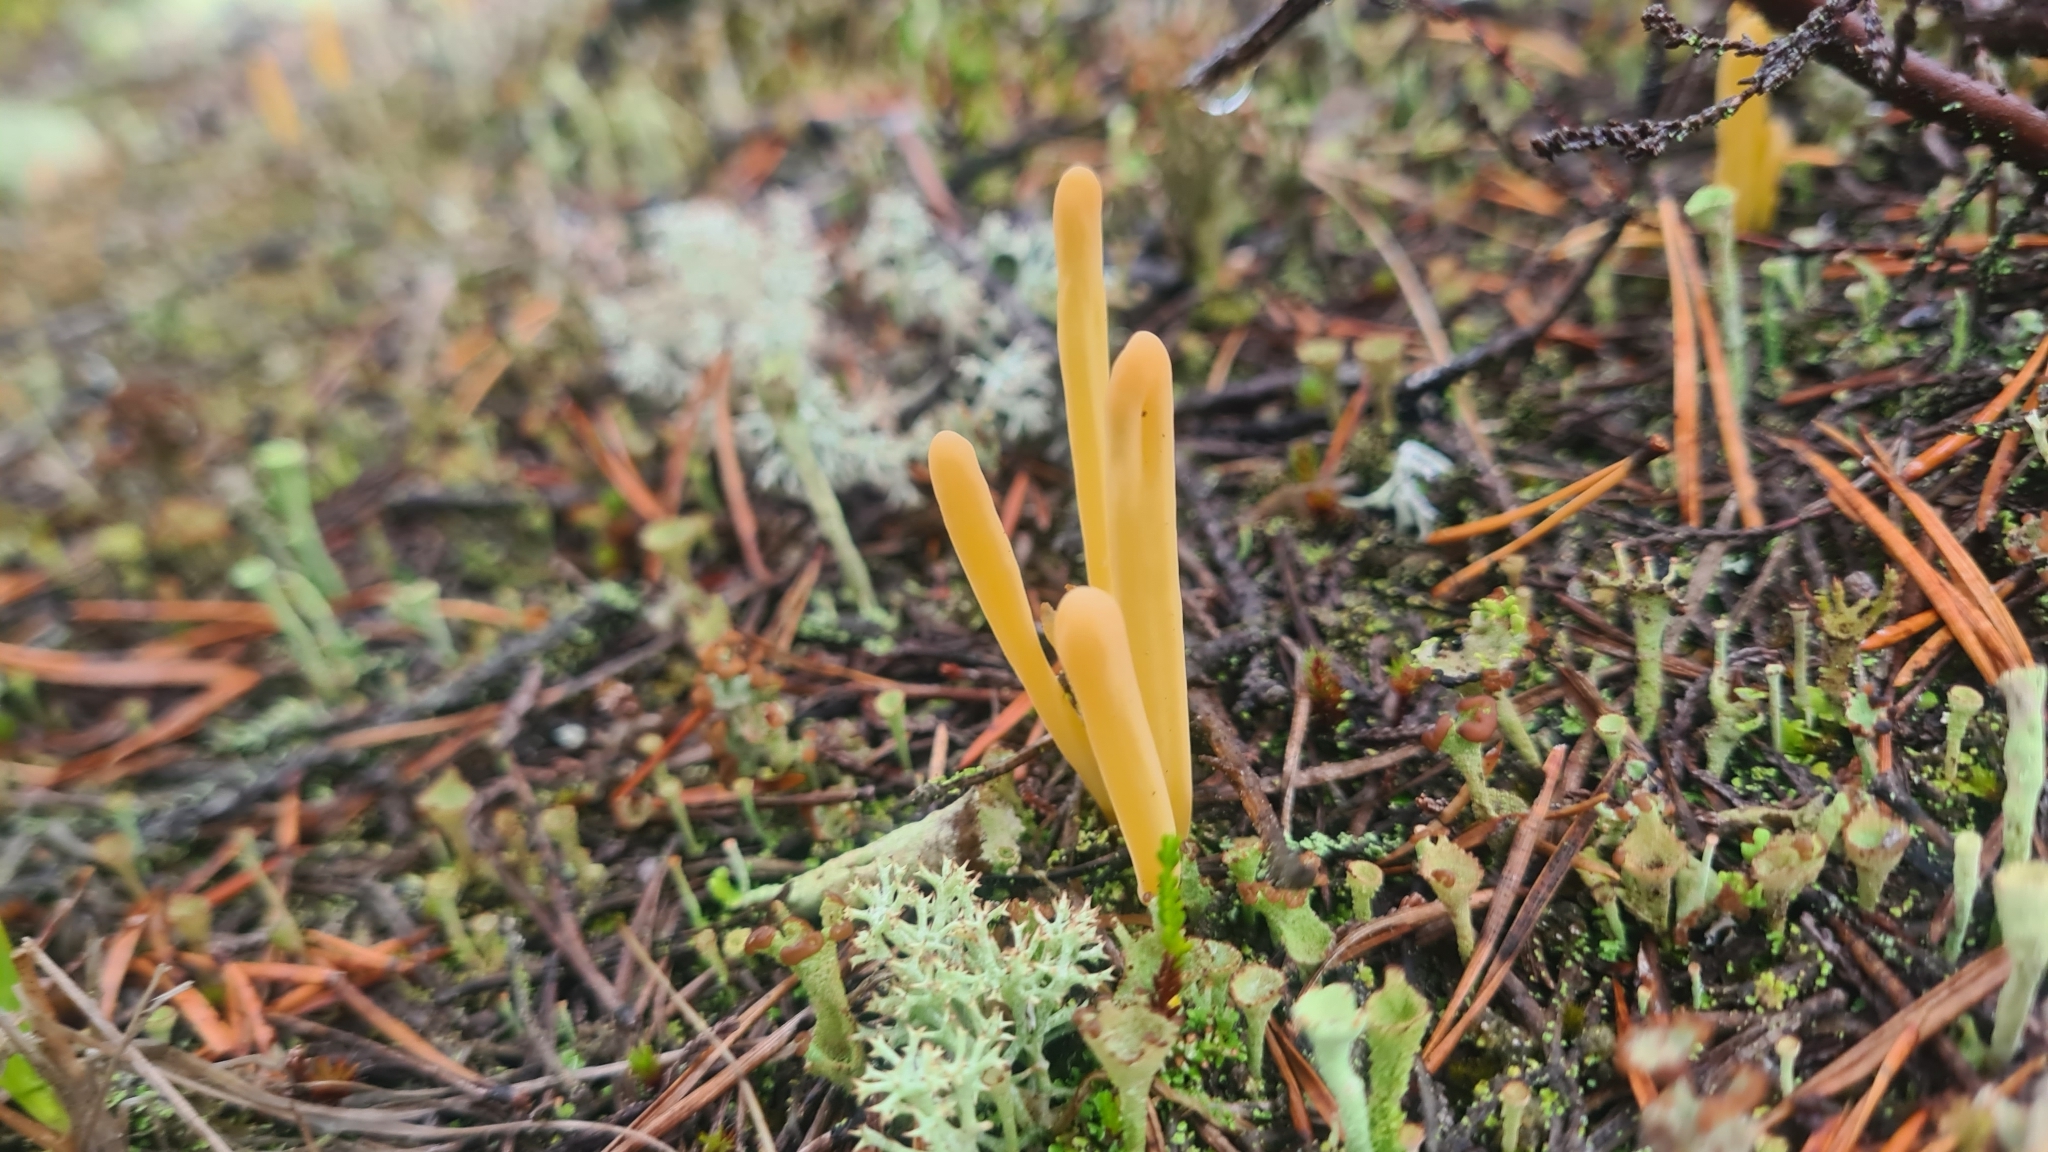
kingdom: Fungi
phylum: Basidiomycota
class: Agaricomycetes
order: Agaricales
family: Clavariaceae
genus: Clavaria
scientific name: Clavaria argillacea
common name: Moor club
